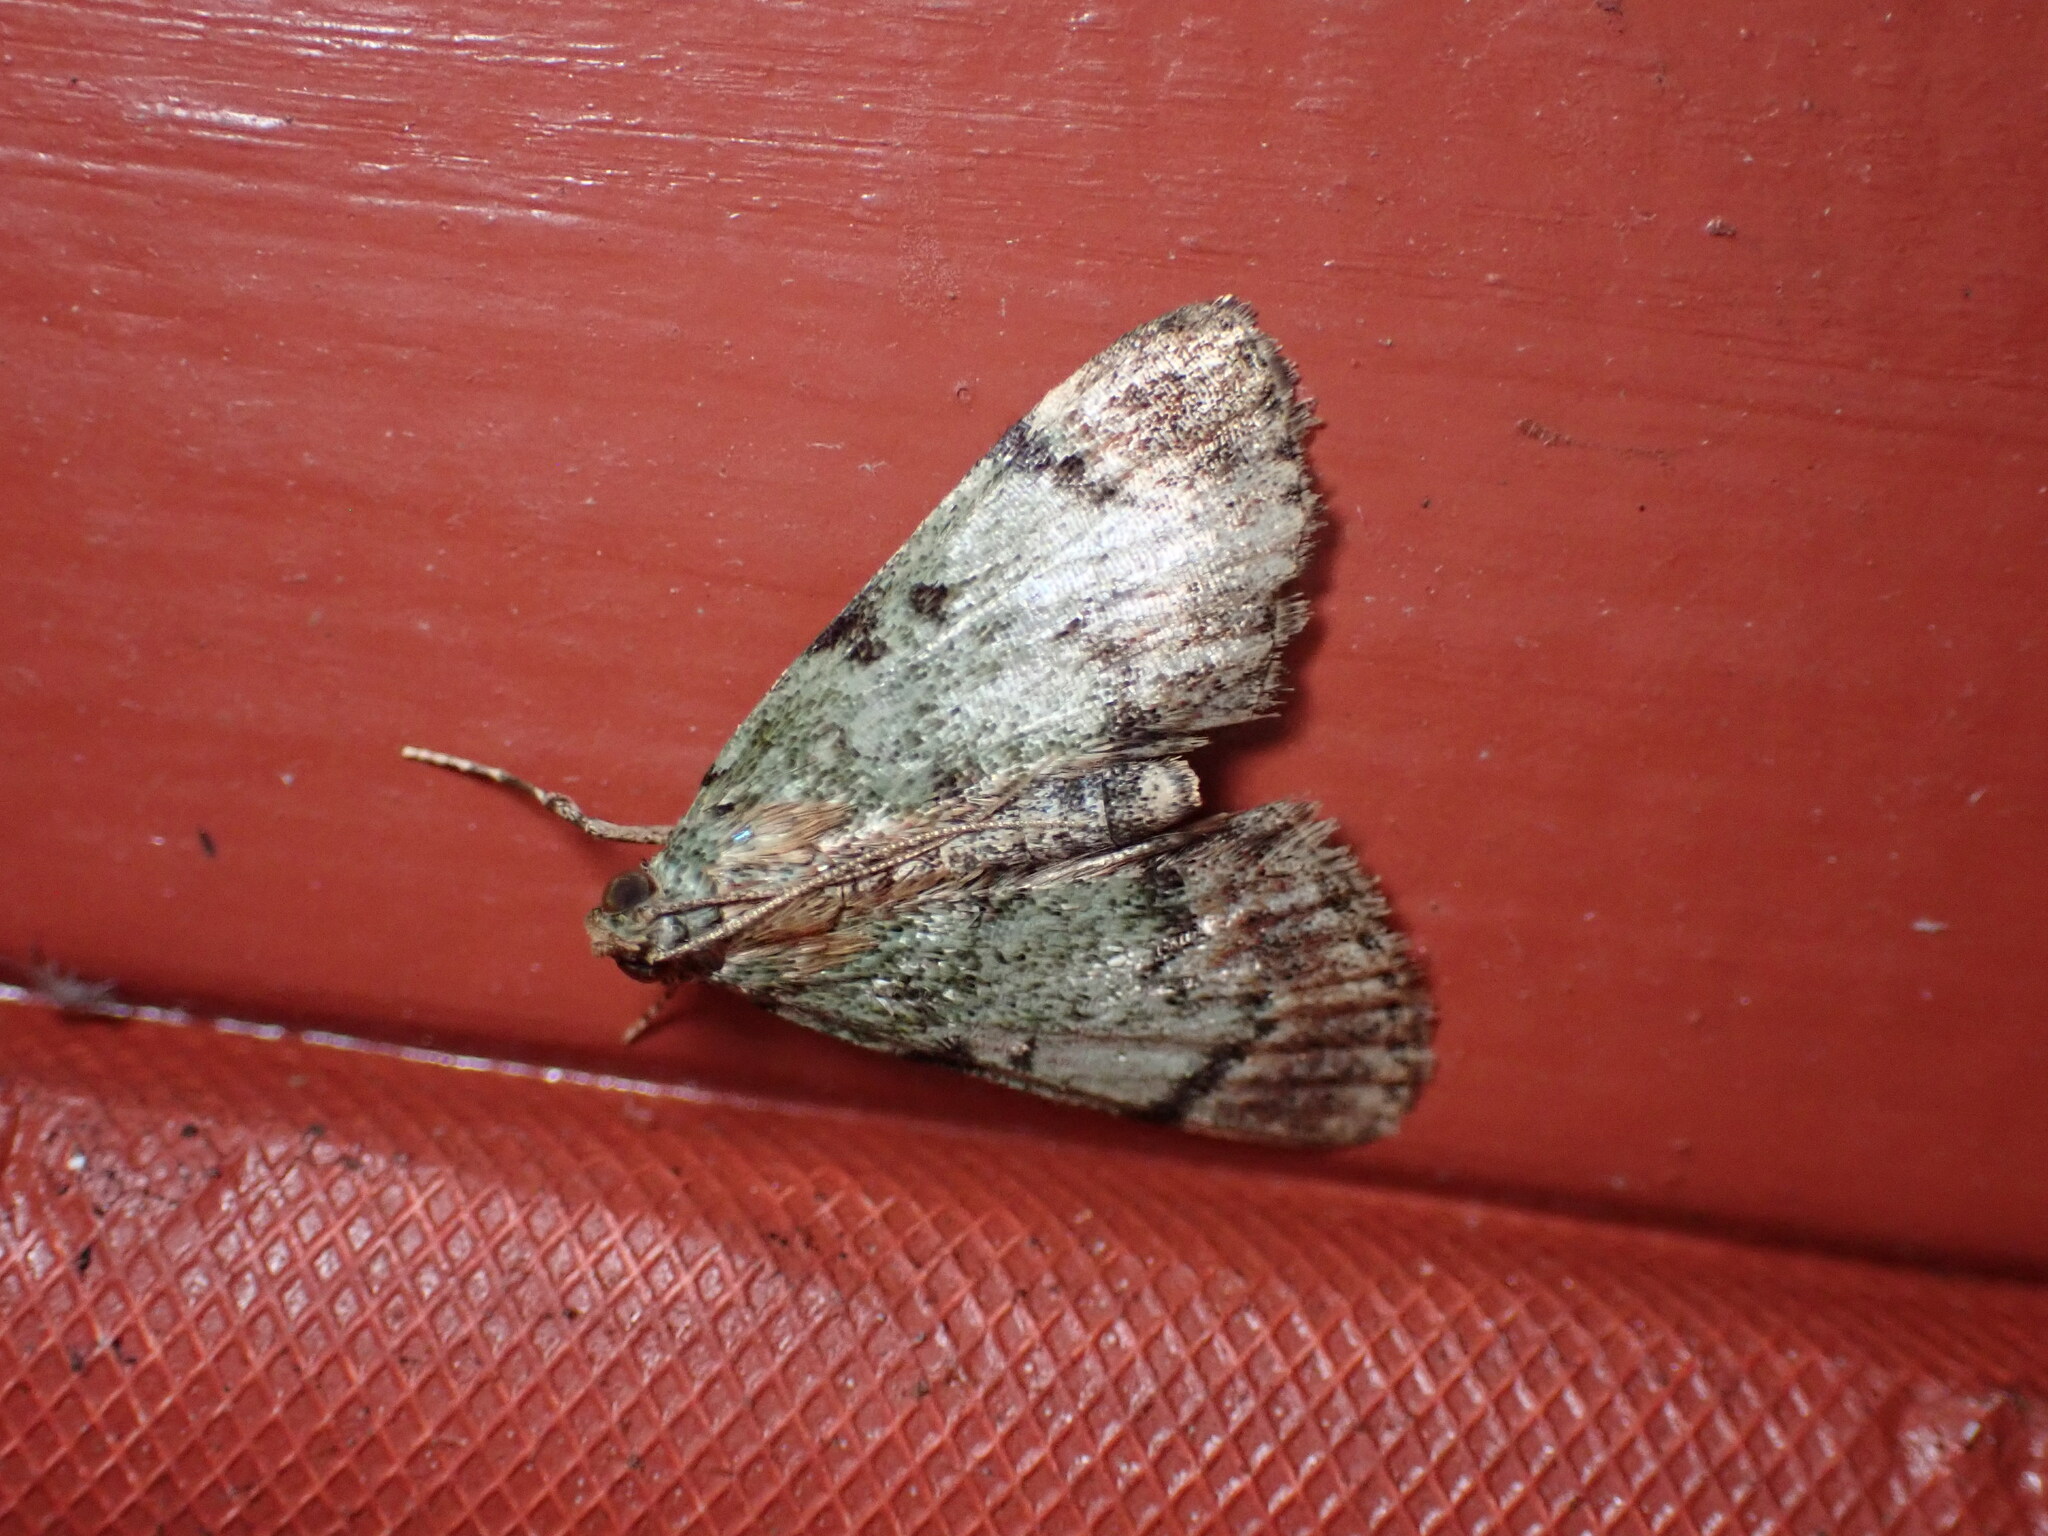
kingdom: Animalia
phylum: Arthropoda
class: Insecta
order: Lepidoptera
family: Pyralidae
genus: Epipaschia
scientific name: Epipaschia superatalis
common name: Dimorphic macalla moth
